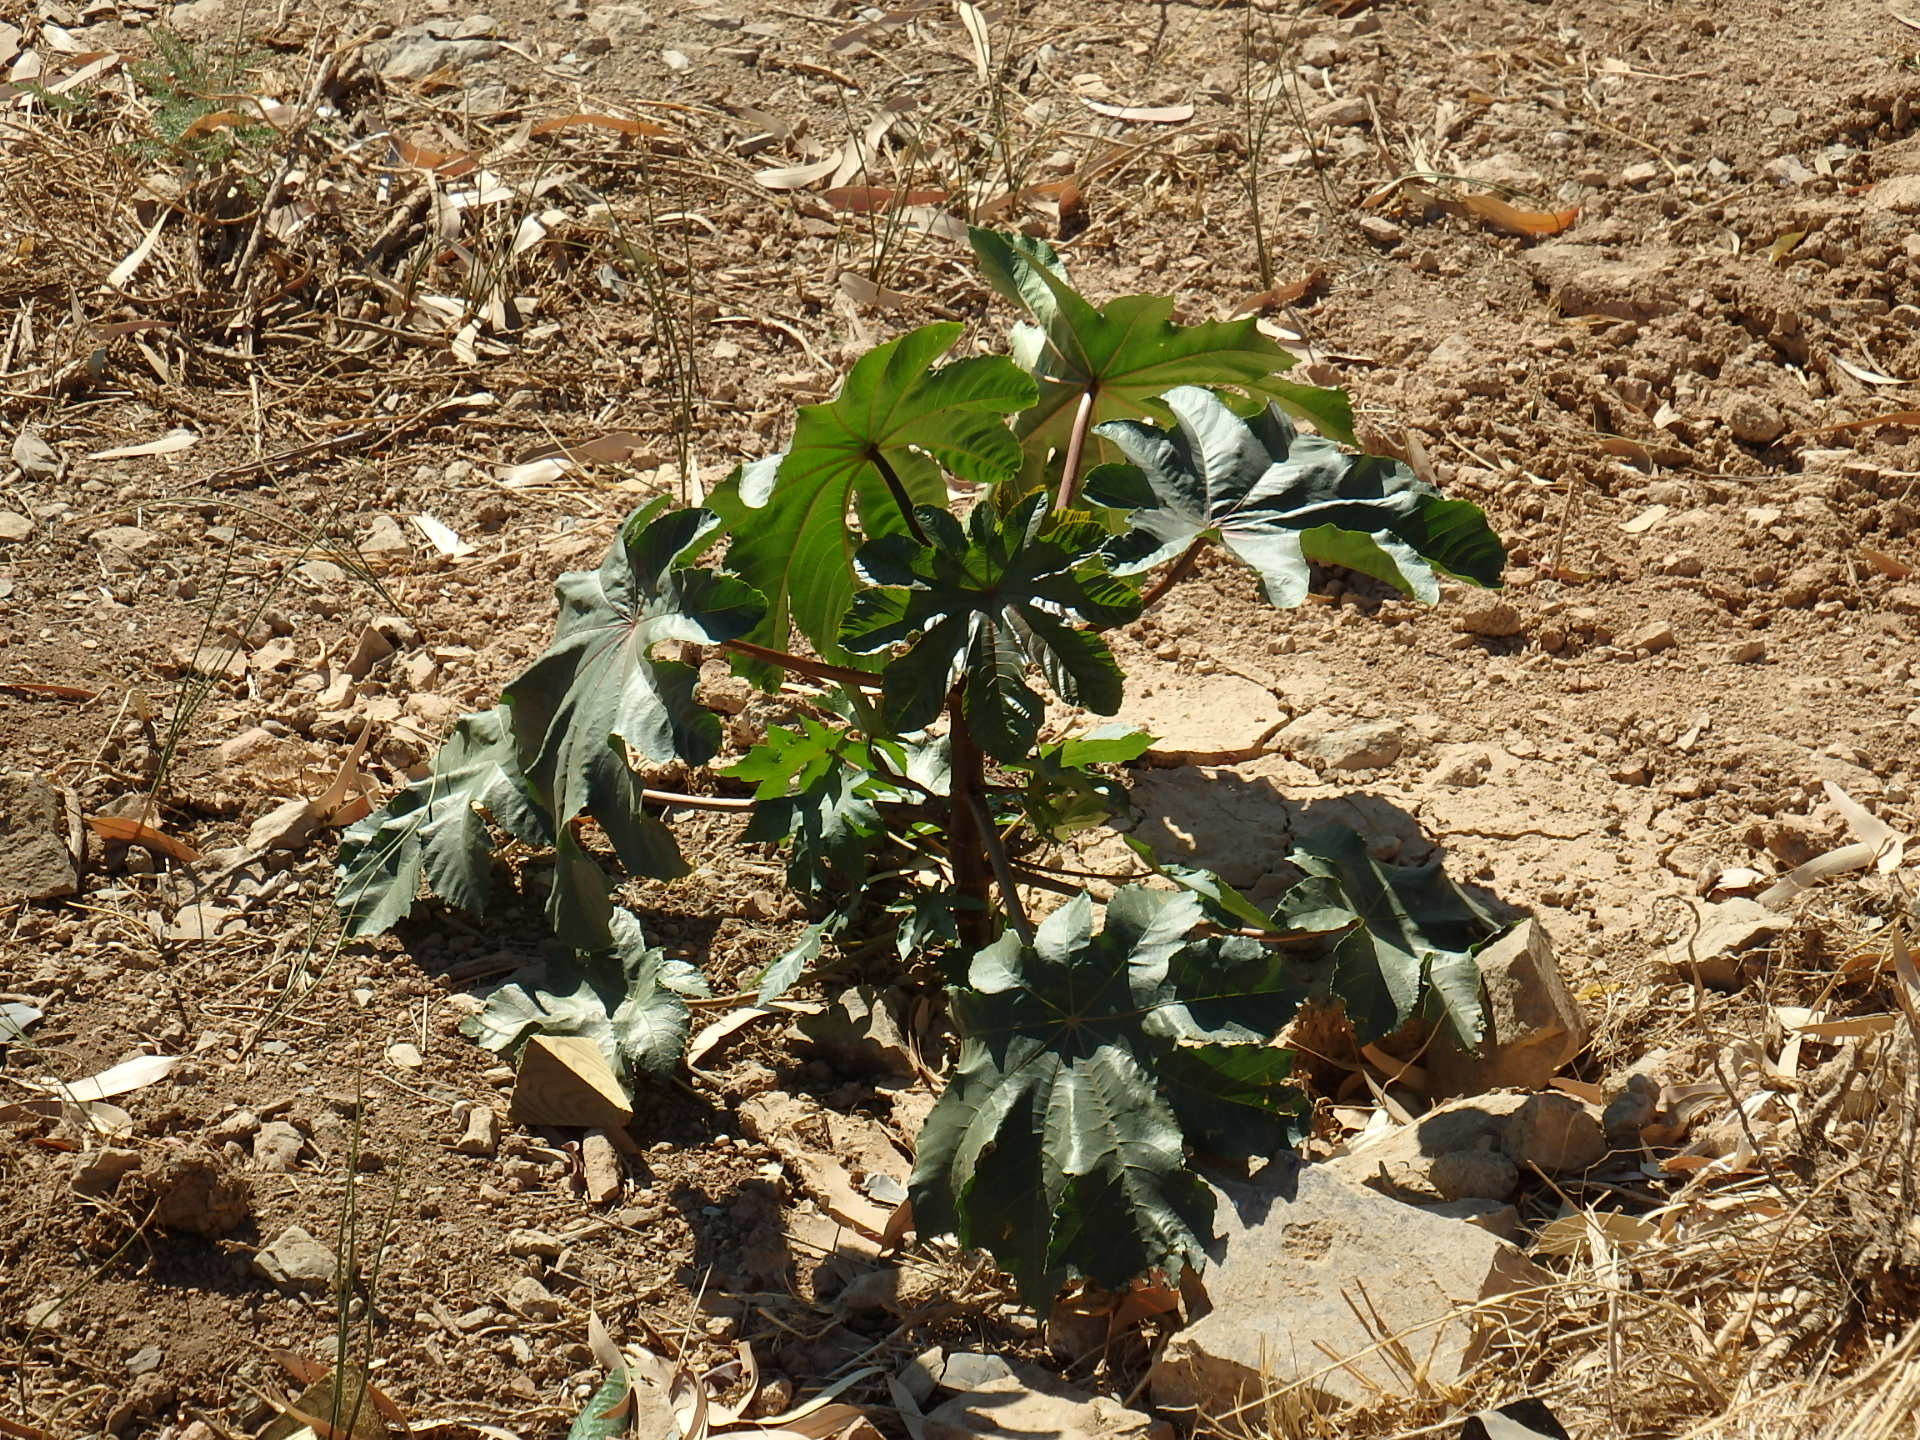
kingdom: Plantae
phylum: Tracheophyta
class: Magnoliopsida
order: Malpighiales
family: Euphorbiaceae
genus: Ricinus
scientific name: Ricinus communis
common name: Castor-oil-plant
